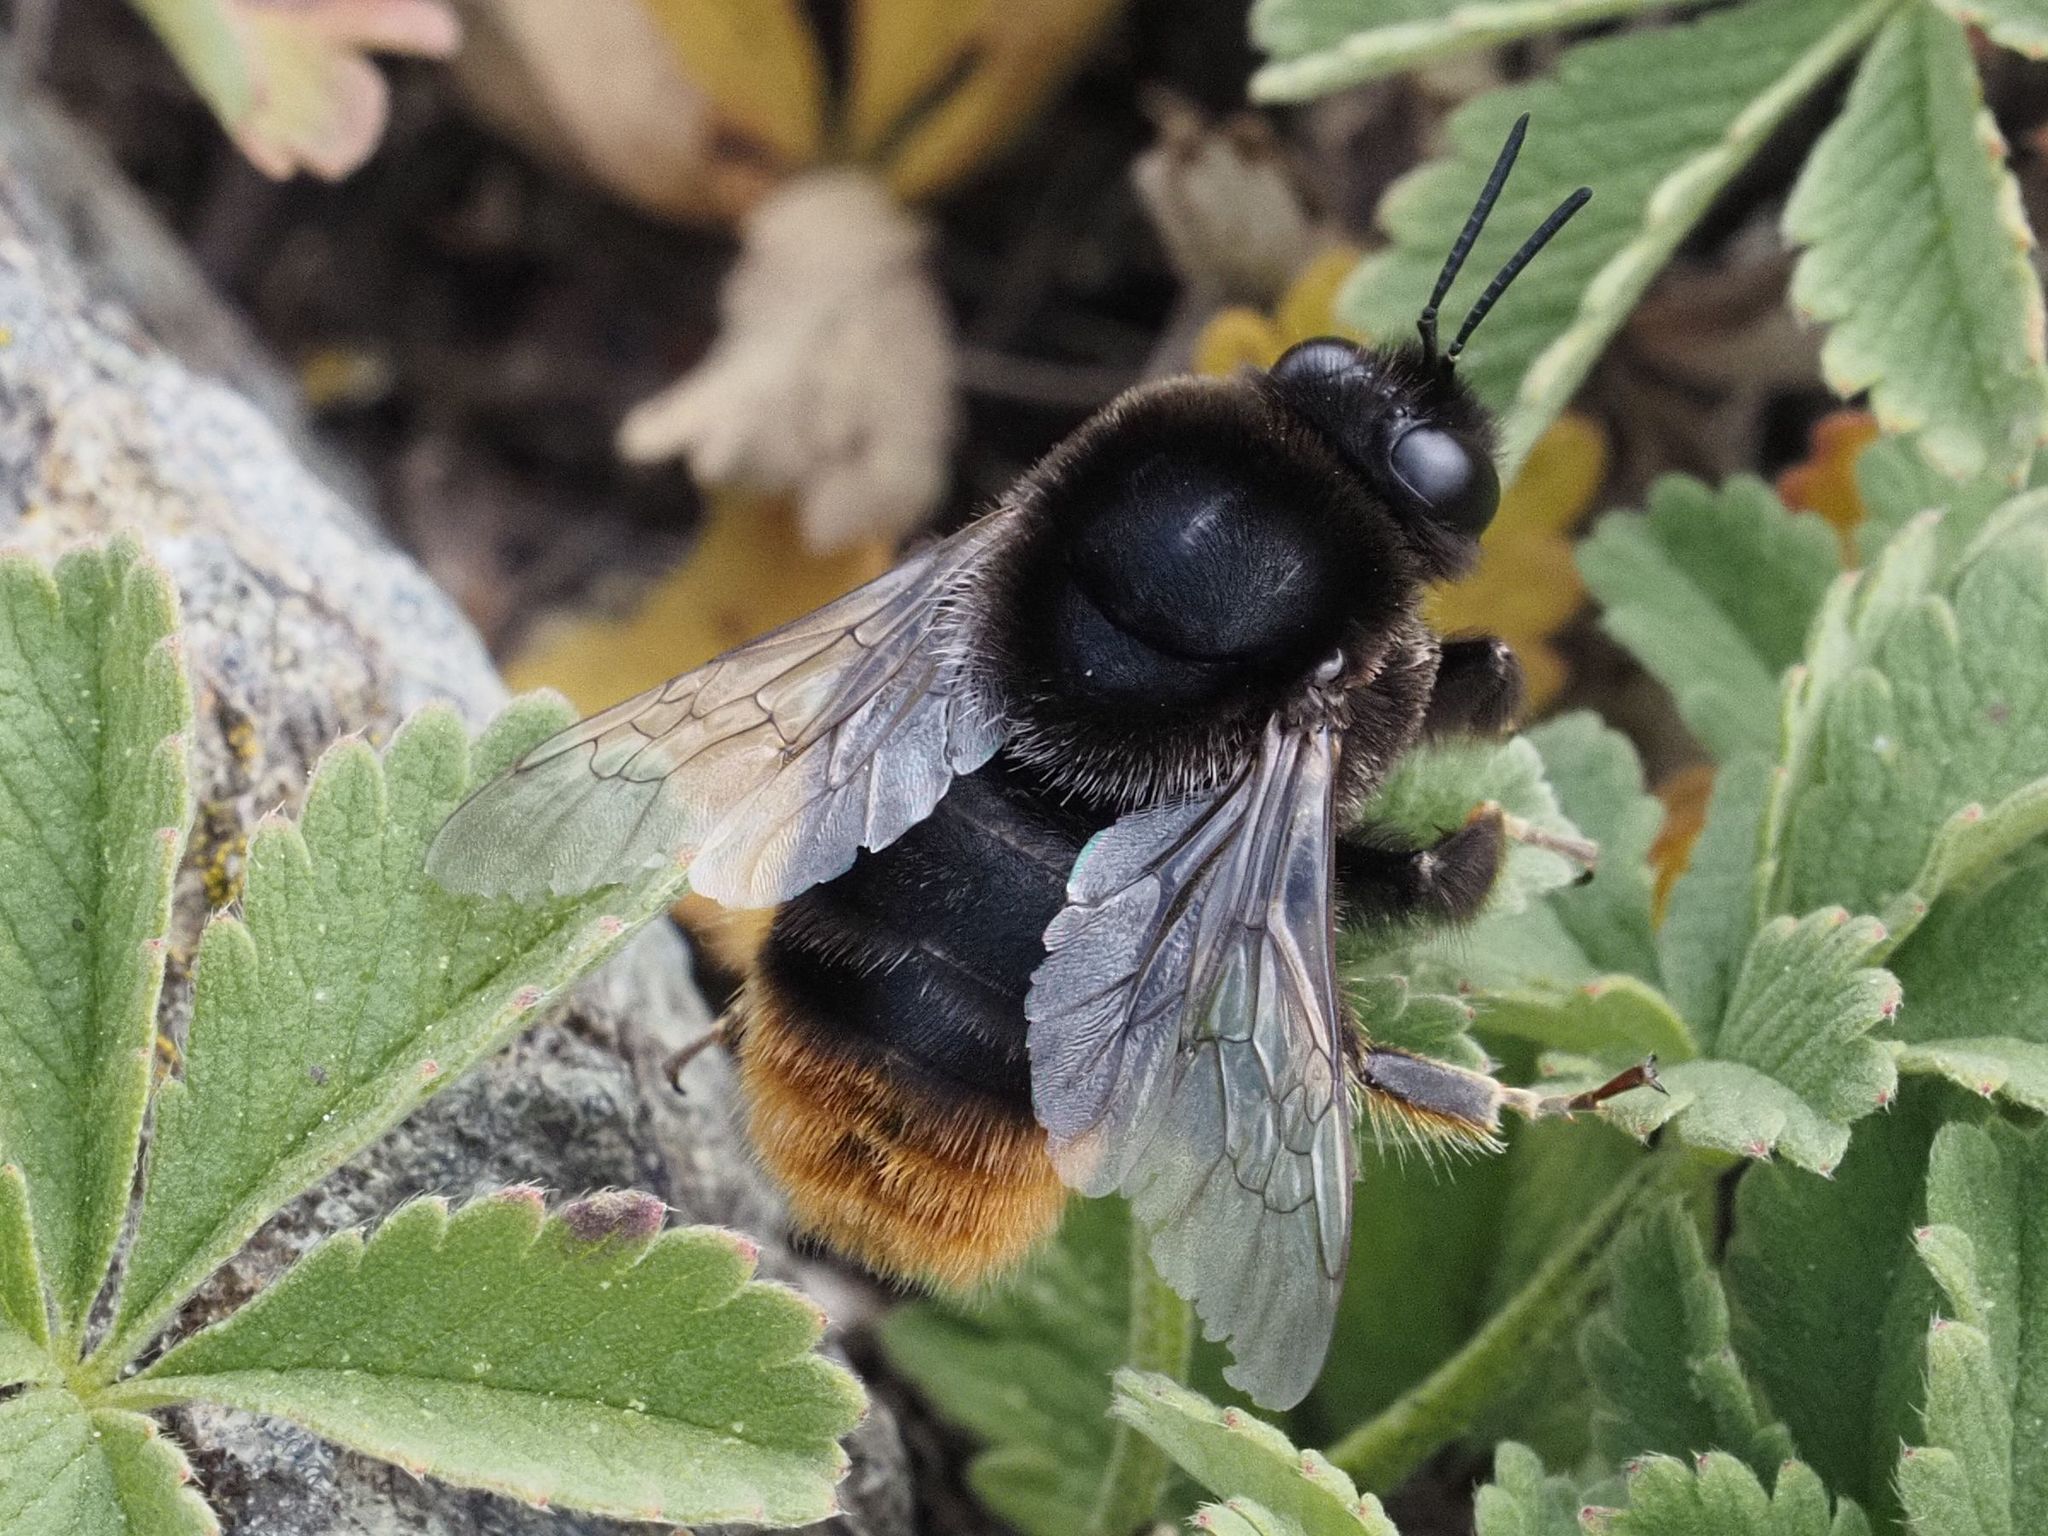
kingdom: Animalia
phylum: Arthropoda
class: Insecta
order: Hymenoptera
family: Apidae
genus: Bombus
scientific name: Bombus confusus
